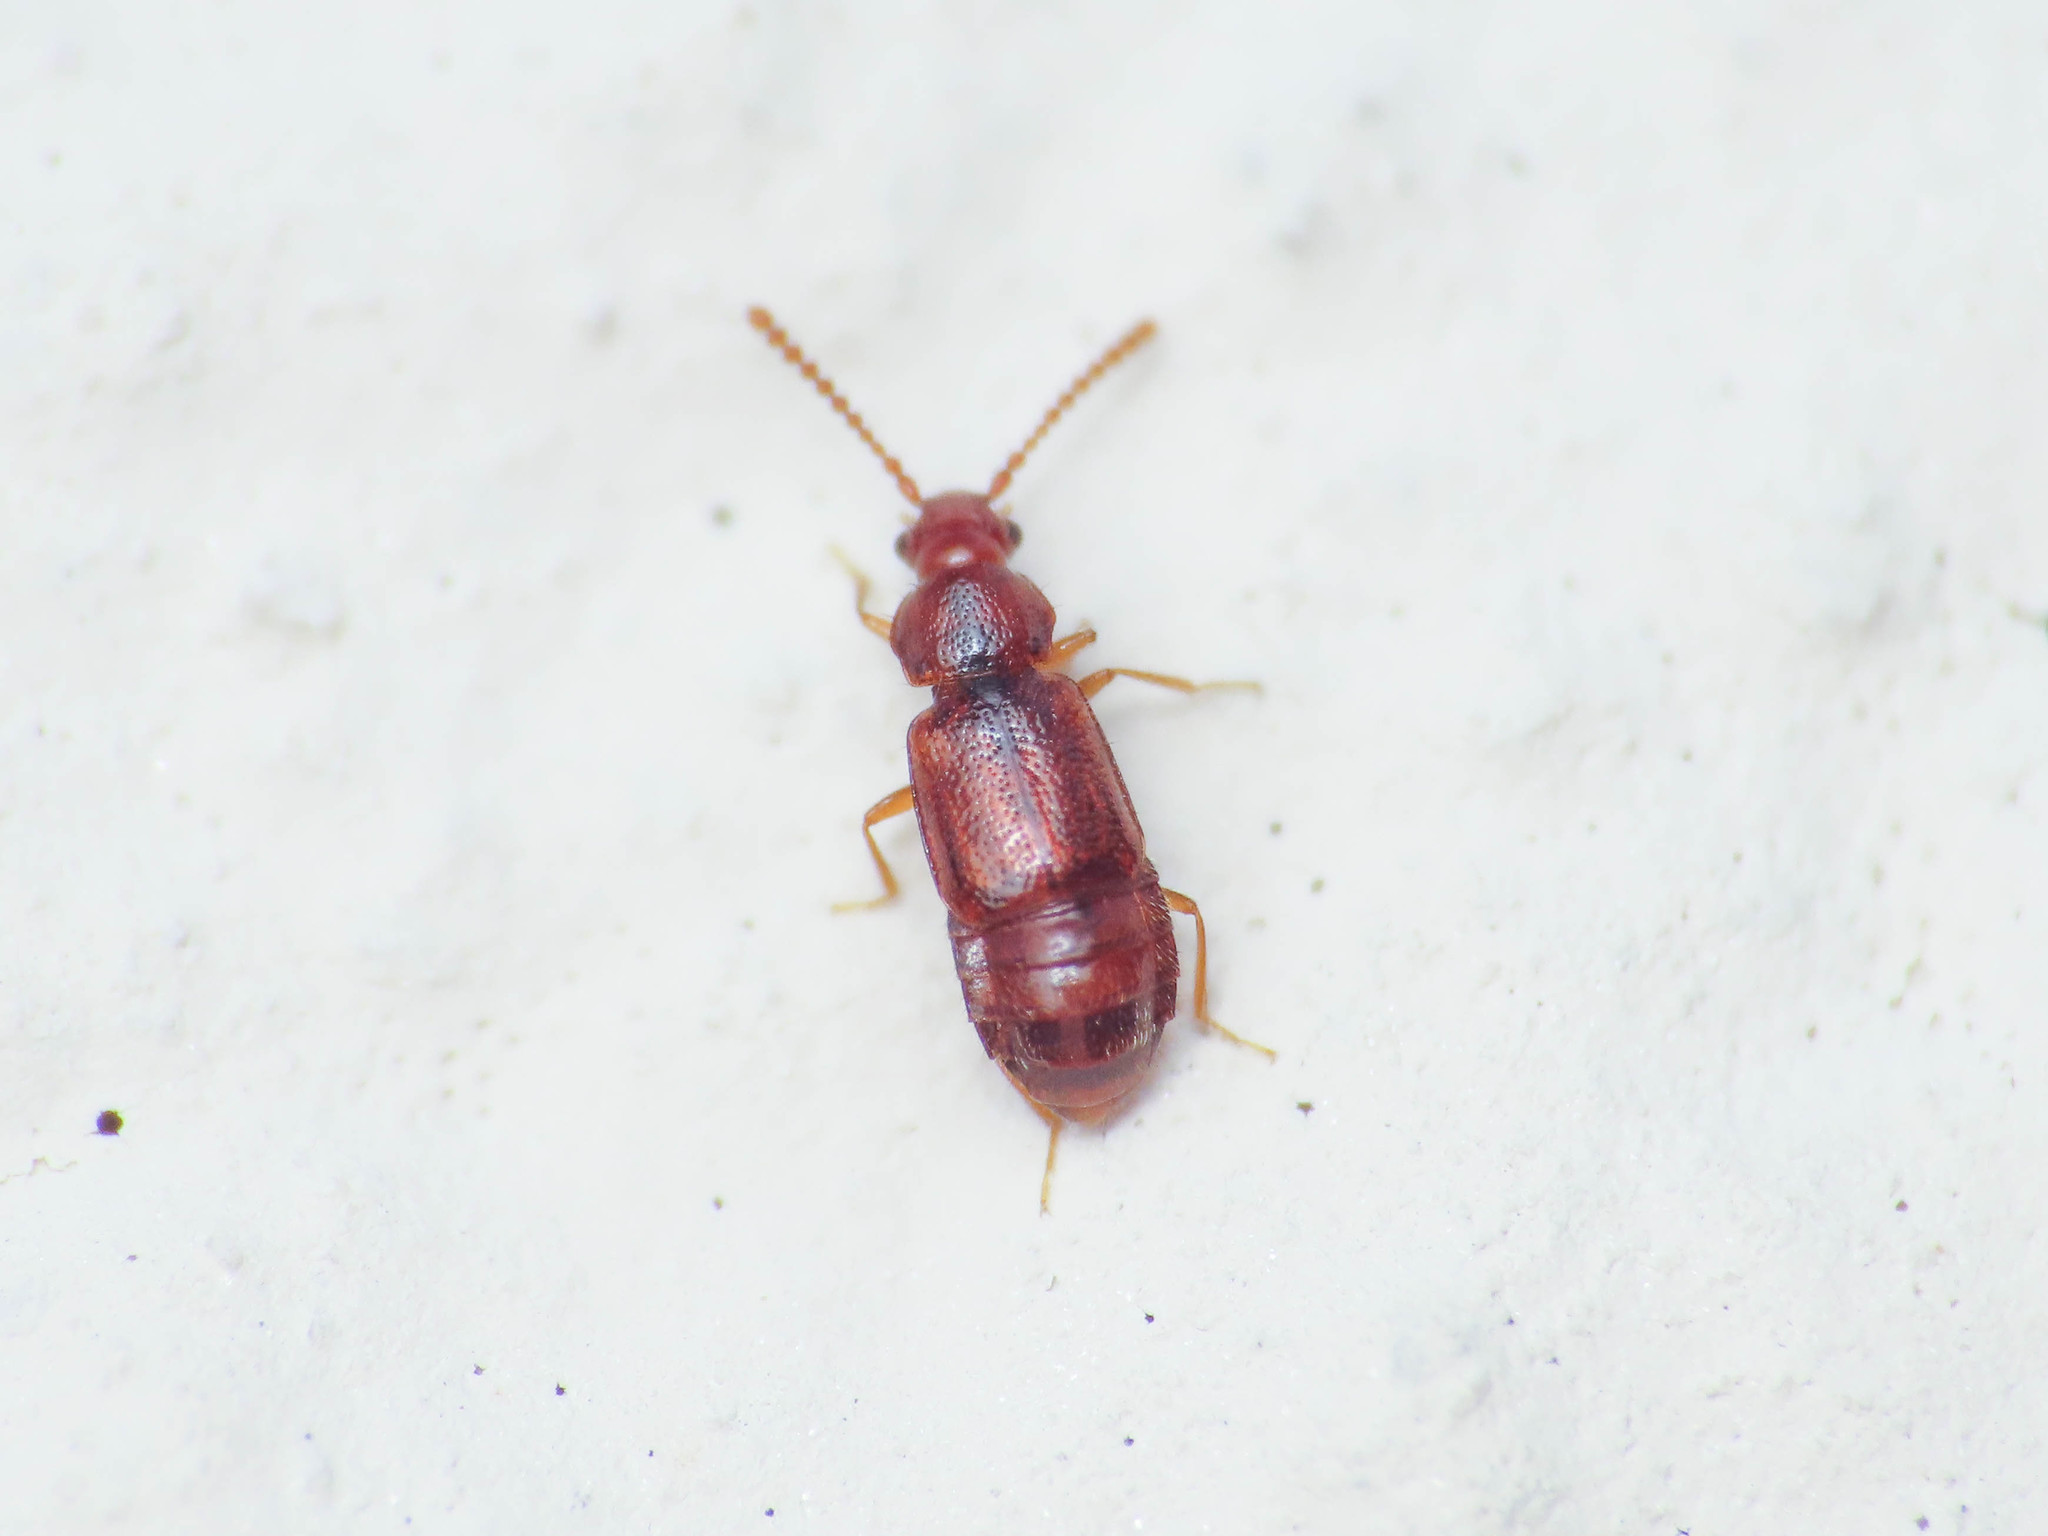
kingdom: Animalia
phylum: Arthropoda
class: Insecta
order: Coleoptera
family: Staphylinidae
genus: Hypopycna
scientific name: Hypopycna rufula
